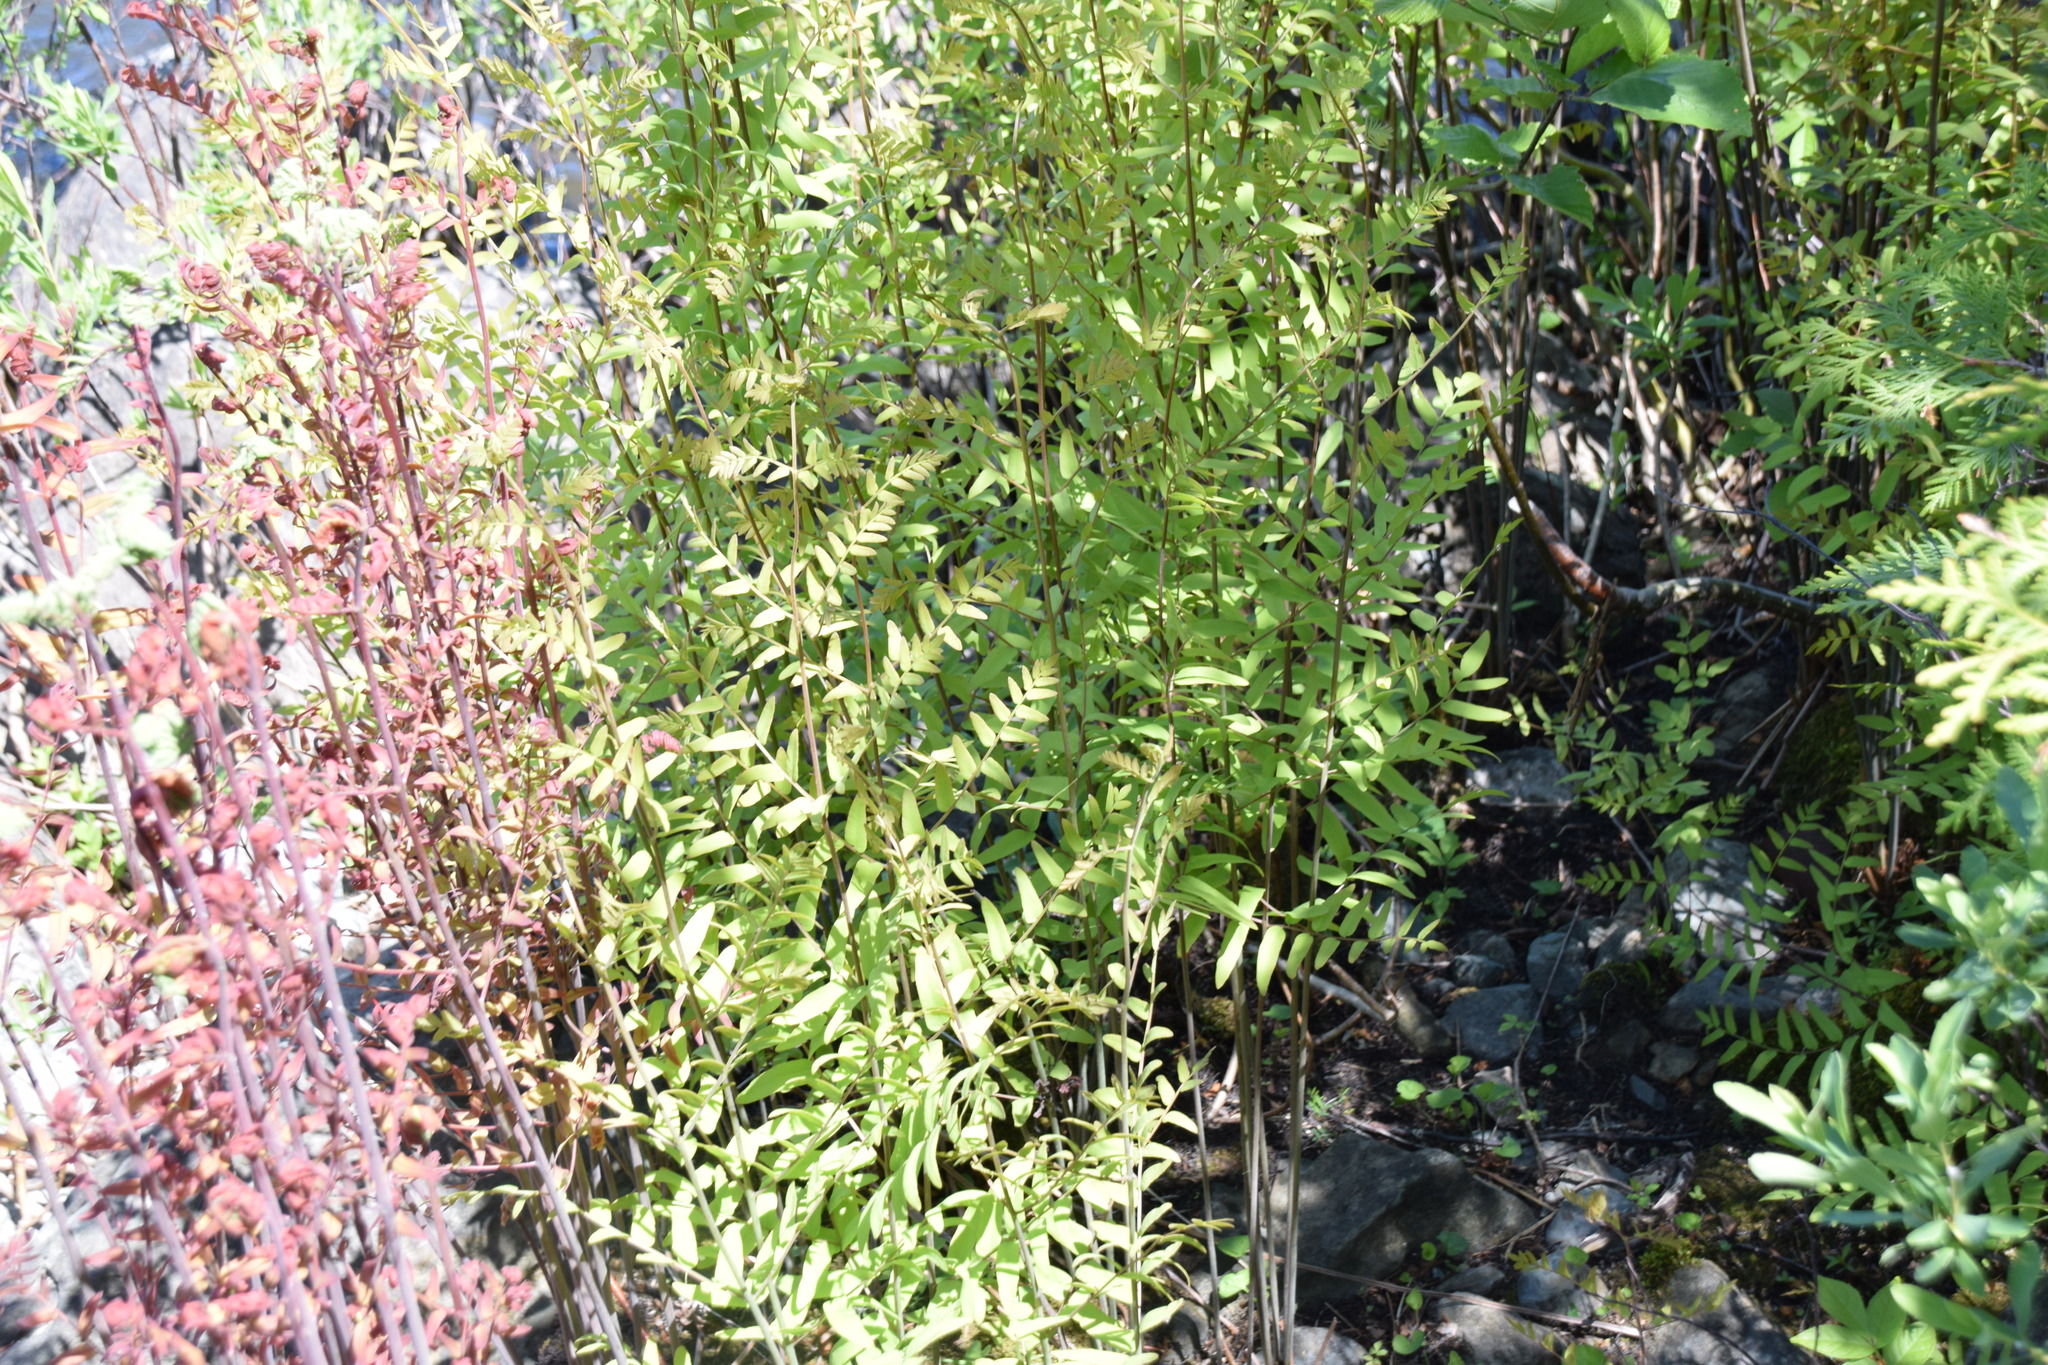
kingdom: Plantae
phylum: Tracheophyta
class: Polypodiopsida
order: Osmundales
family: Osmundaceae
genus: Osmunda
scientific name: Osmunda spectabilis
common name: American royal fern
